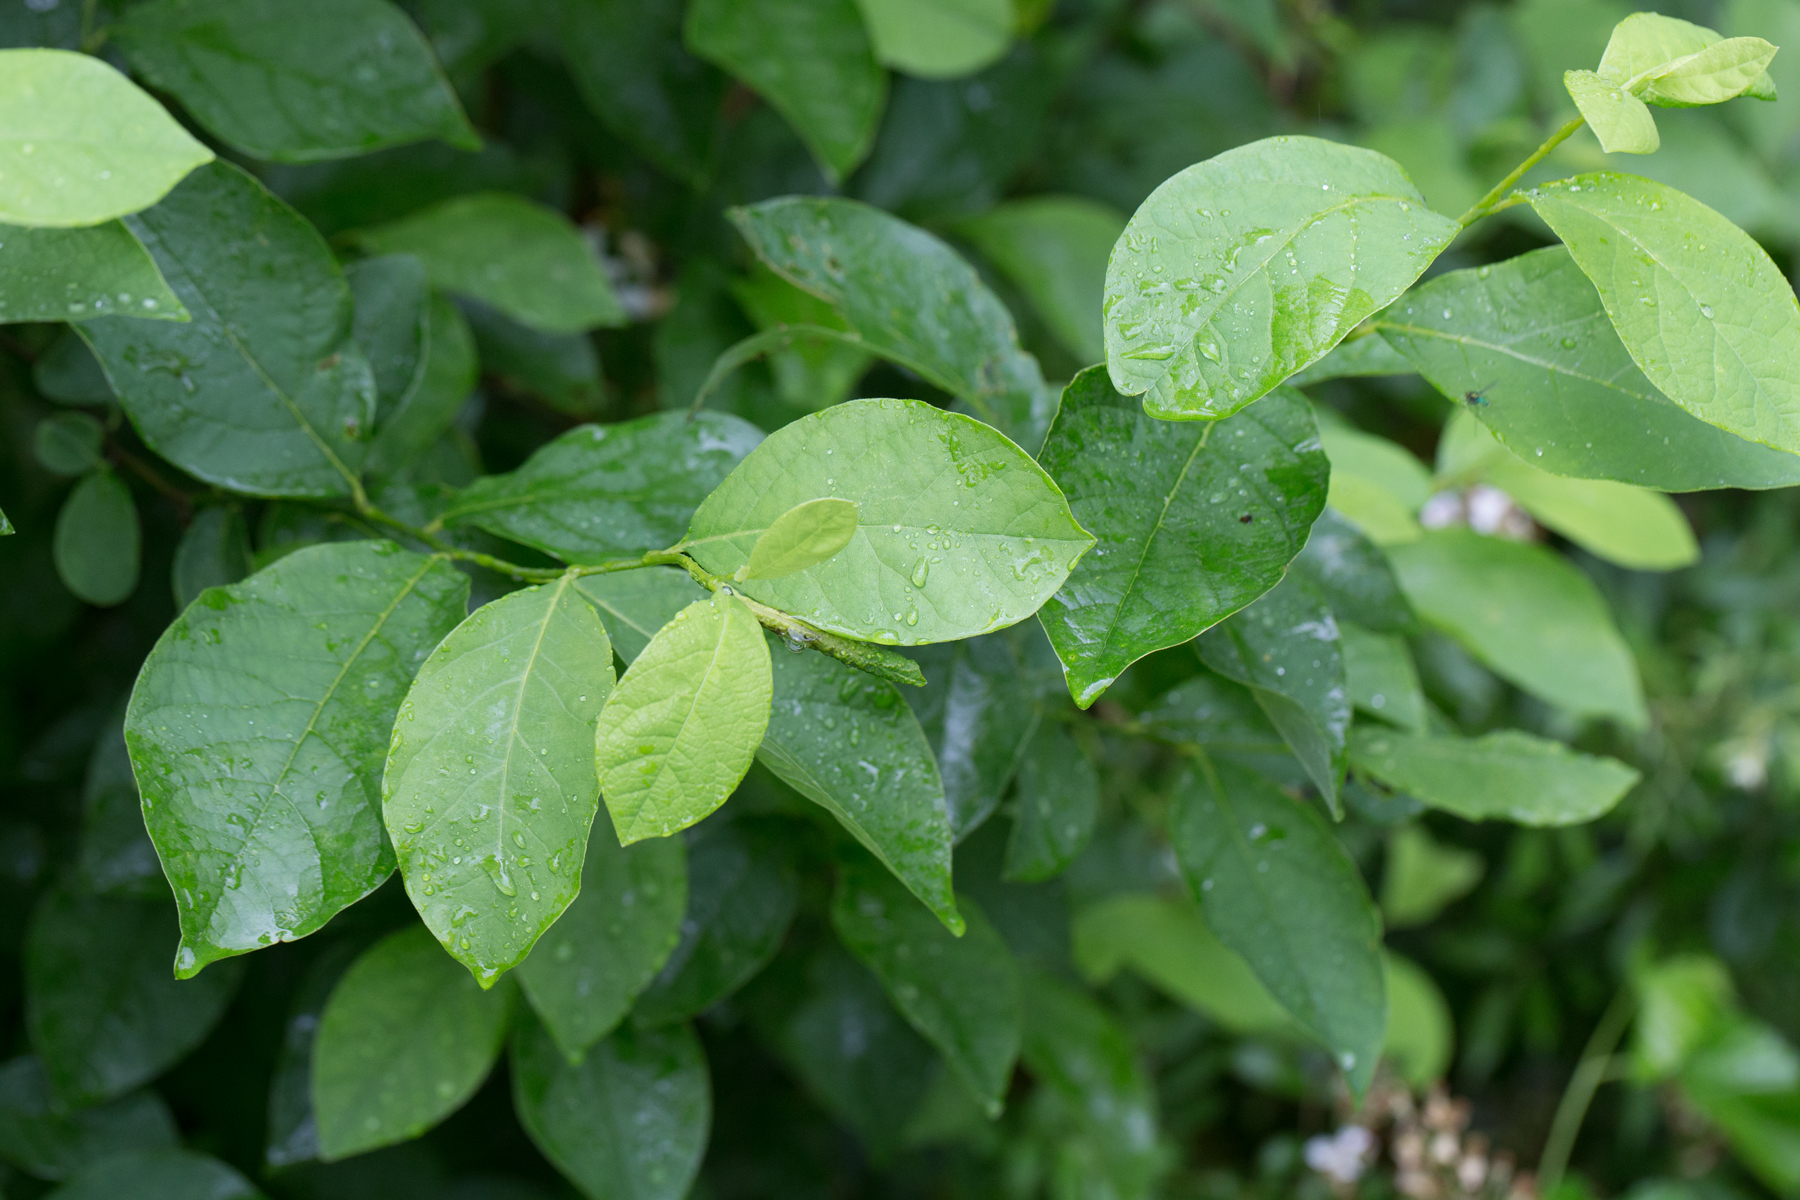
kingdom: Plantae
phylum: Tracheophyta
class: Magnoliopsida
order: Laurales
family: Lauraceae
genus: Lindera
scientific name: Lindera benzoin
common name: Spicebush
